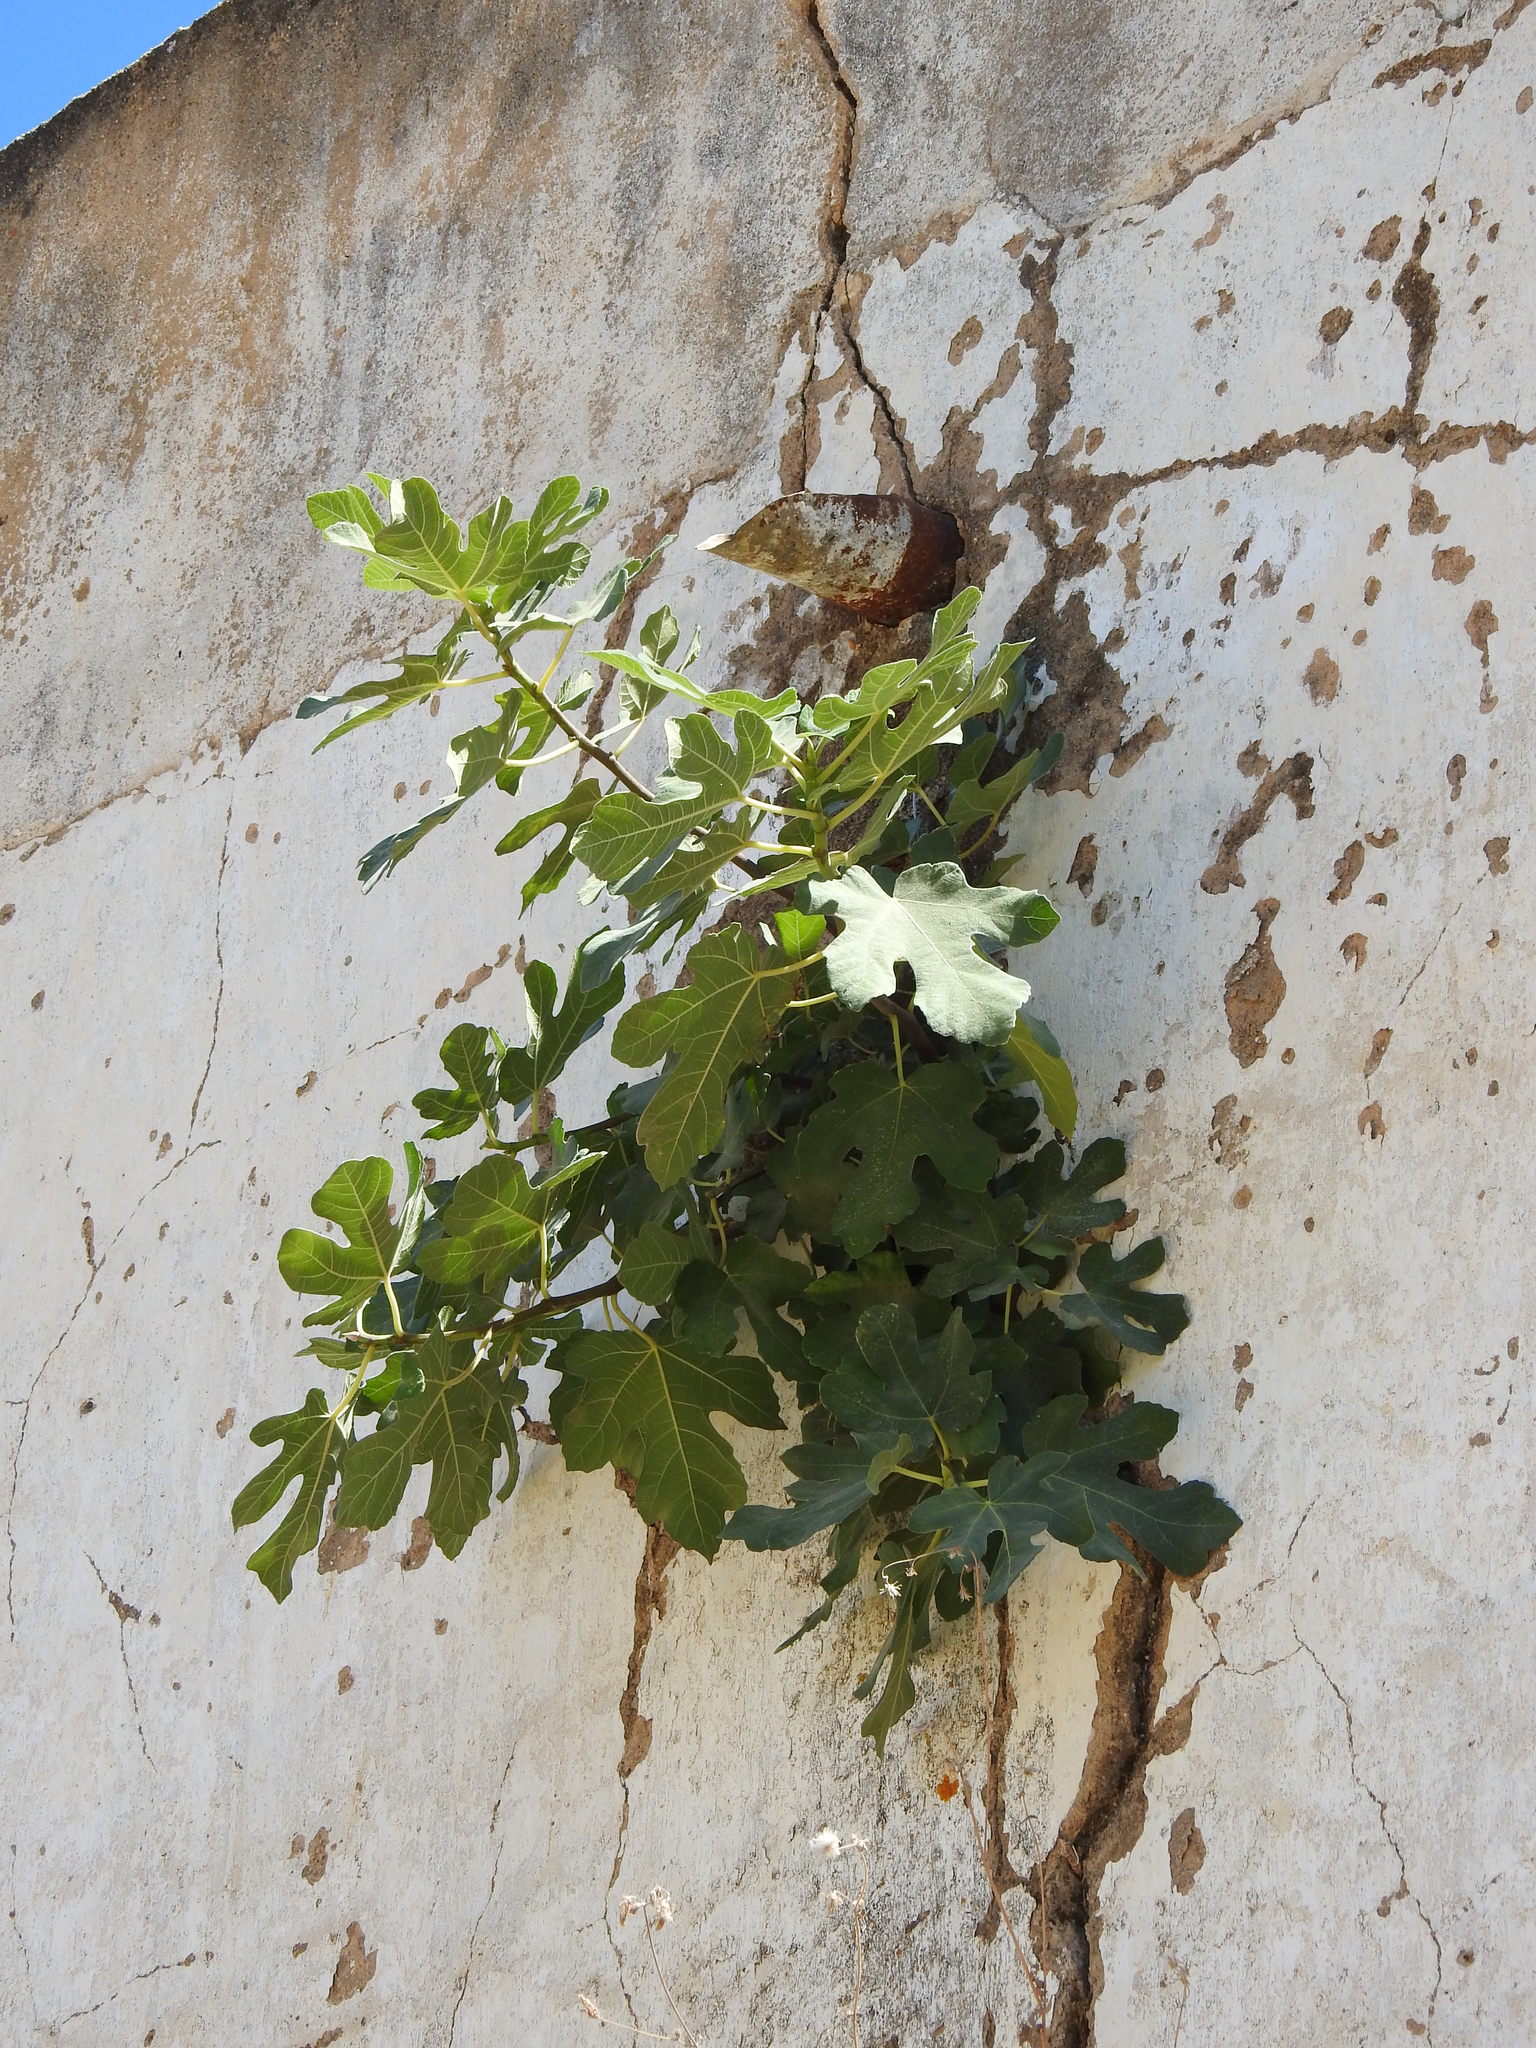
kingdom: Plantae
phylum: Tracheophyta
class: Magnoliopsida
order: Rosales
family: Moraceae
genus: Ficus
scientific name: Ficus carica
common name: Fig
